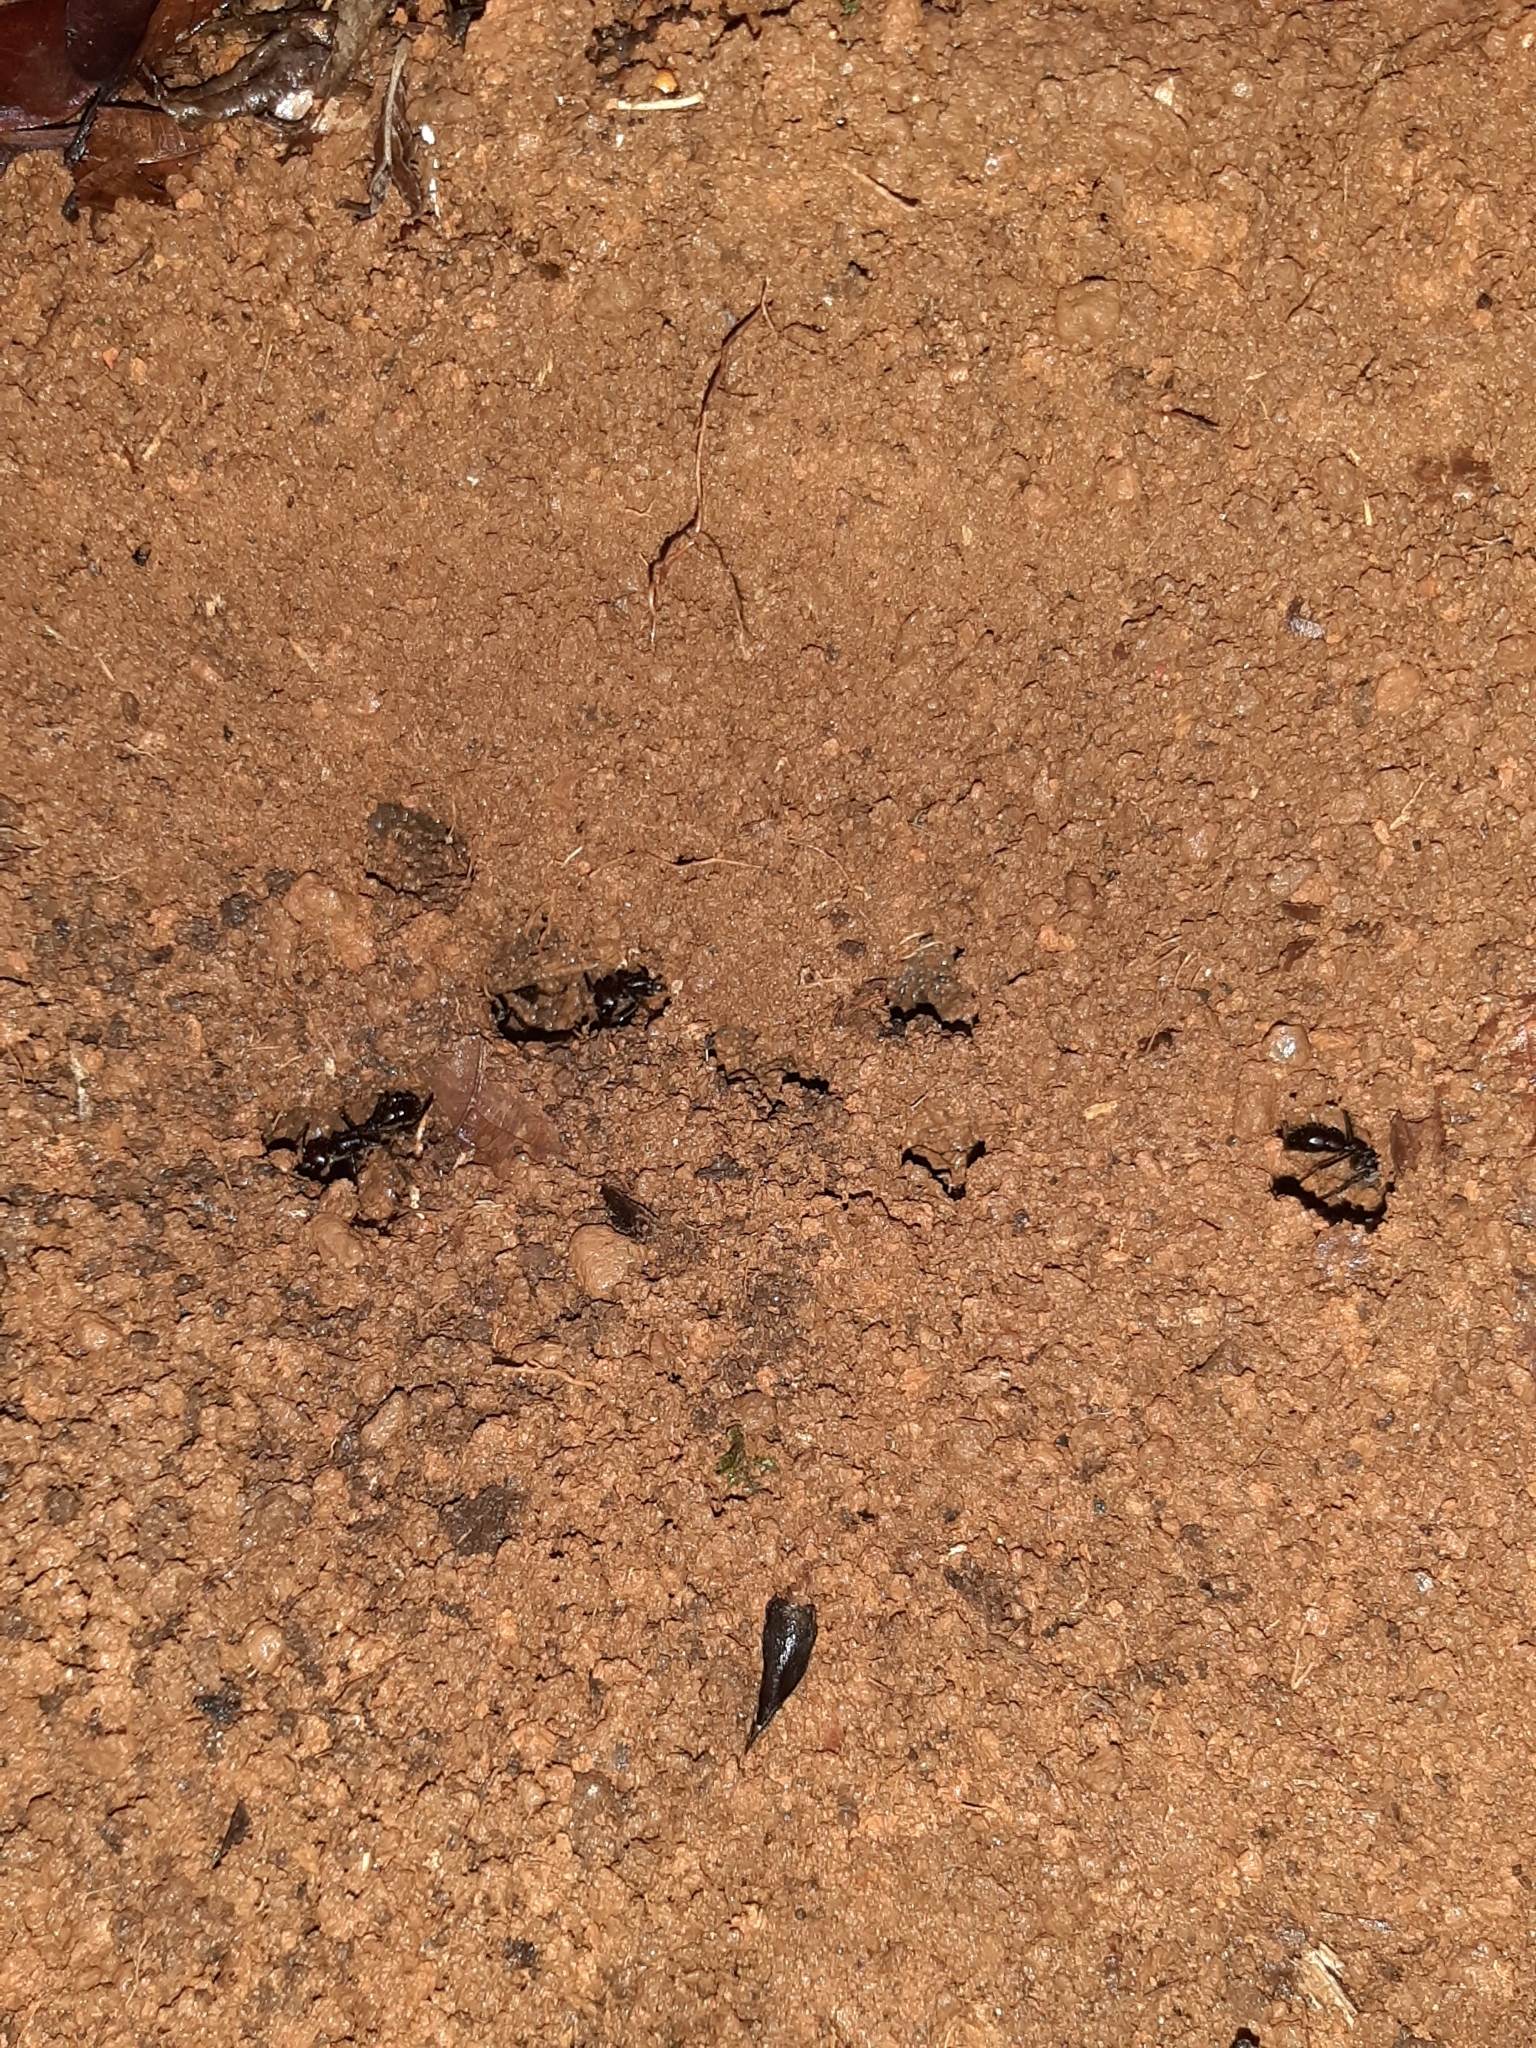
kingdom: Animalia
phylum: Arthropoda
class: Insecta
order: Hymenoptera
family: Formicidae
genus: Paraponera
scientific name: Paraponera clavata
